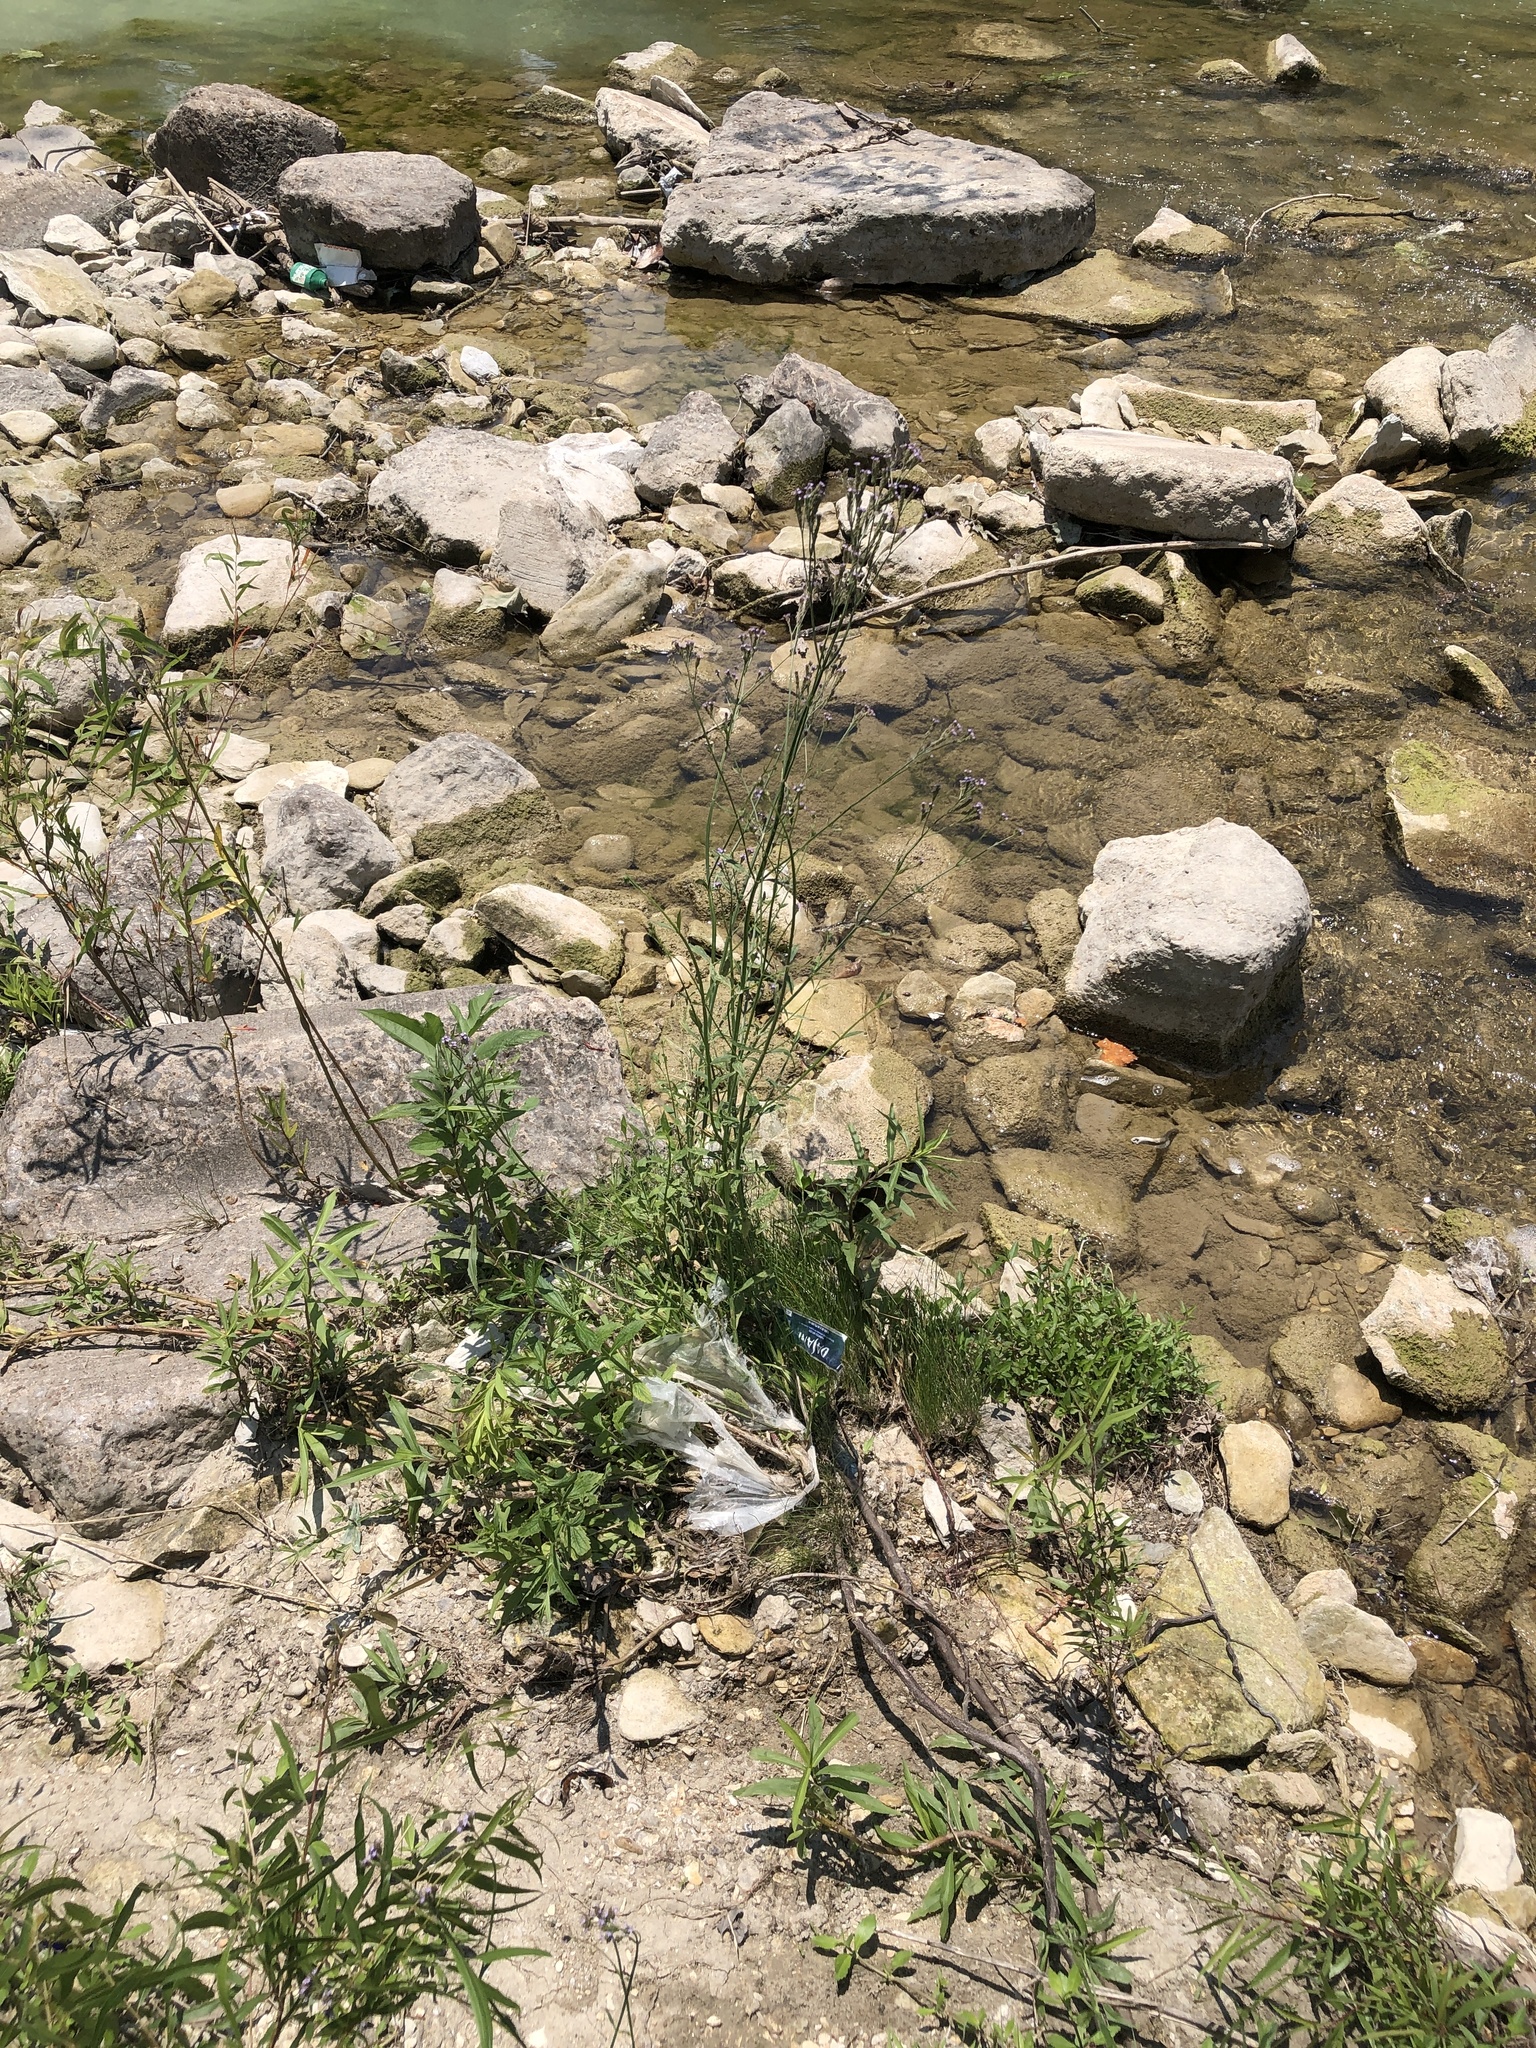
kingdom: Plantae
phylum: Tracheophyta
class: Magnoliopsida
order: Lamiales
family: Verbenaceae
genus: Verbena
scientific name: Verbena brasiliensis
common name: Brazilian vervain
